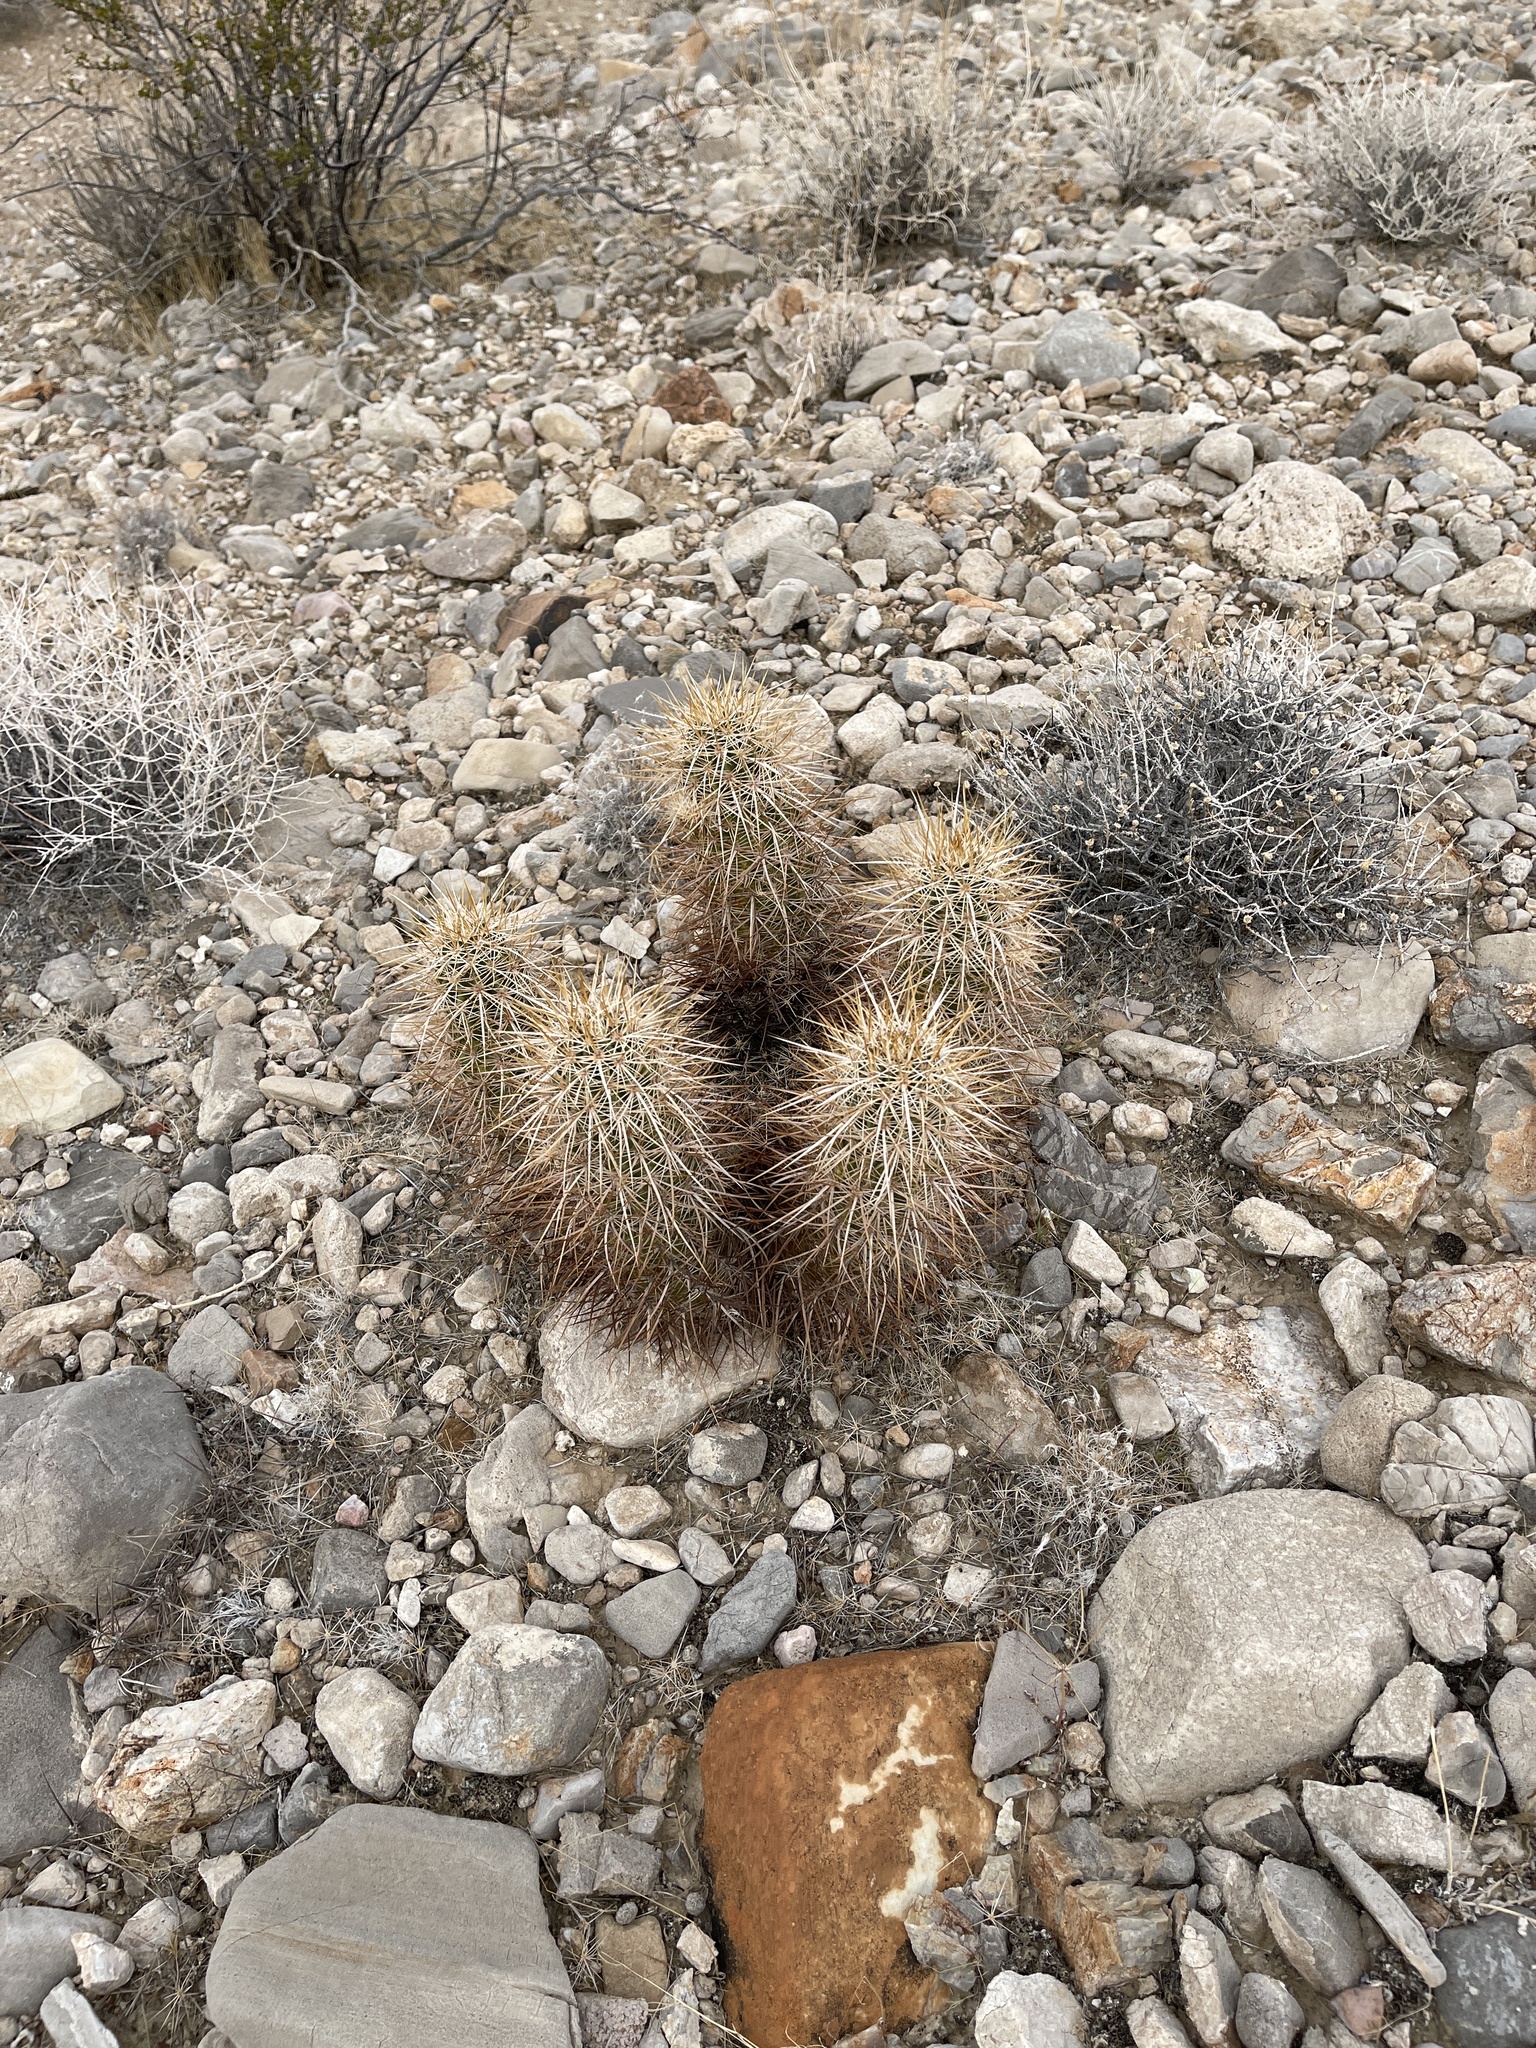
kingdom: Plantae
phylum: Tracheophyta
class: Magnoliopsida
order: Caryophyllales
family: Cactaceae
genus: Echinocereus
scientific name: Echinocereus engelmannii
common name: Engelmann's hedgehog cactus
